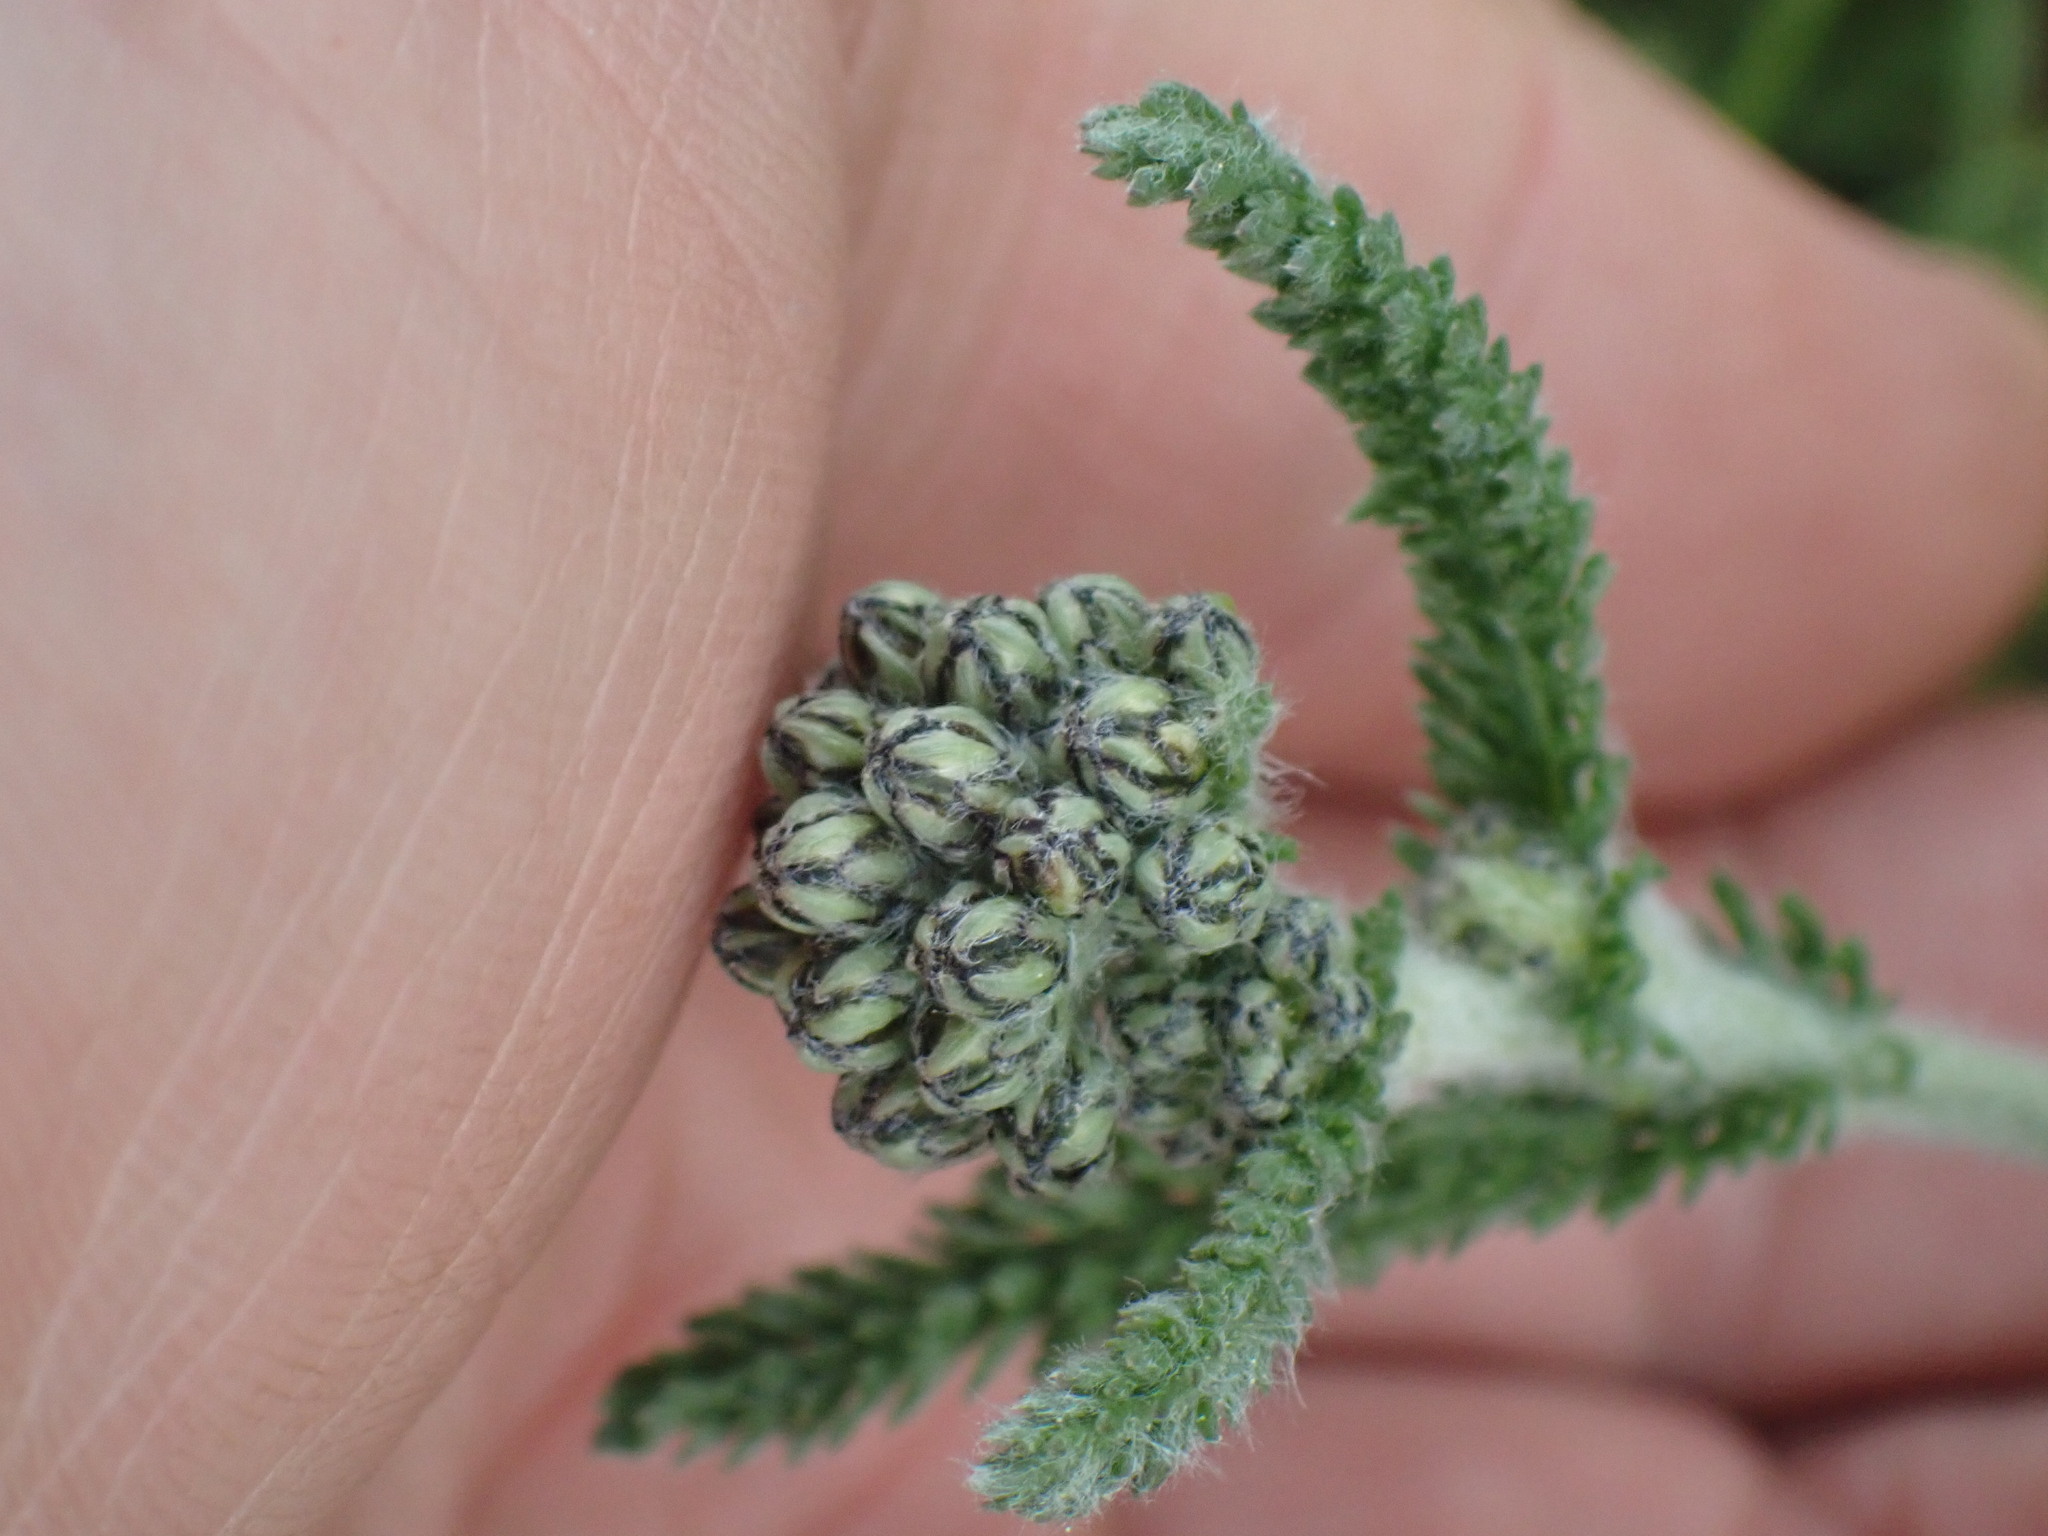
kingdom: Plantae
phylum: Tracheophyta
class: Magnoliopsida
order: Asterales
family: Asteraceae
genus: Achillea
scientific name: Achillea millefolium
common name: Yarrow
